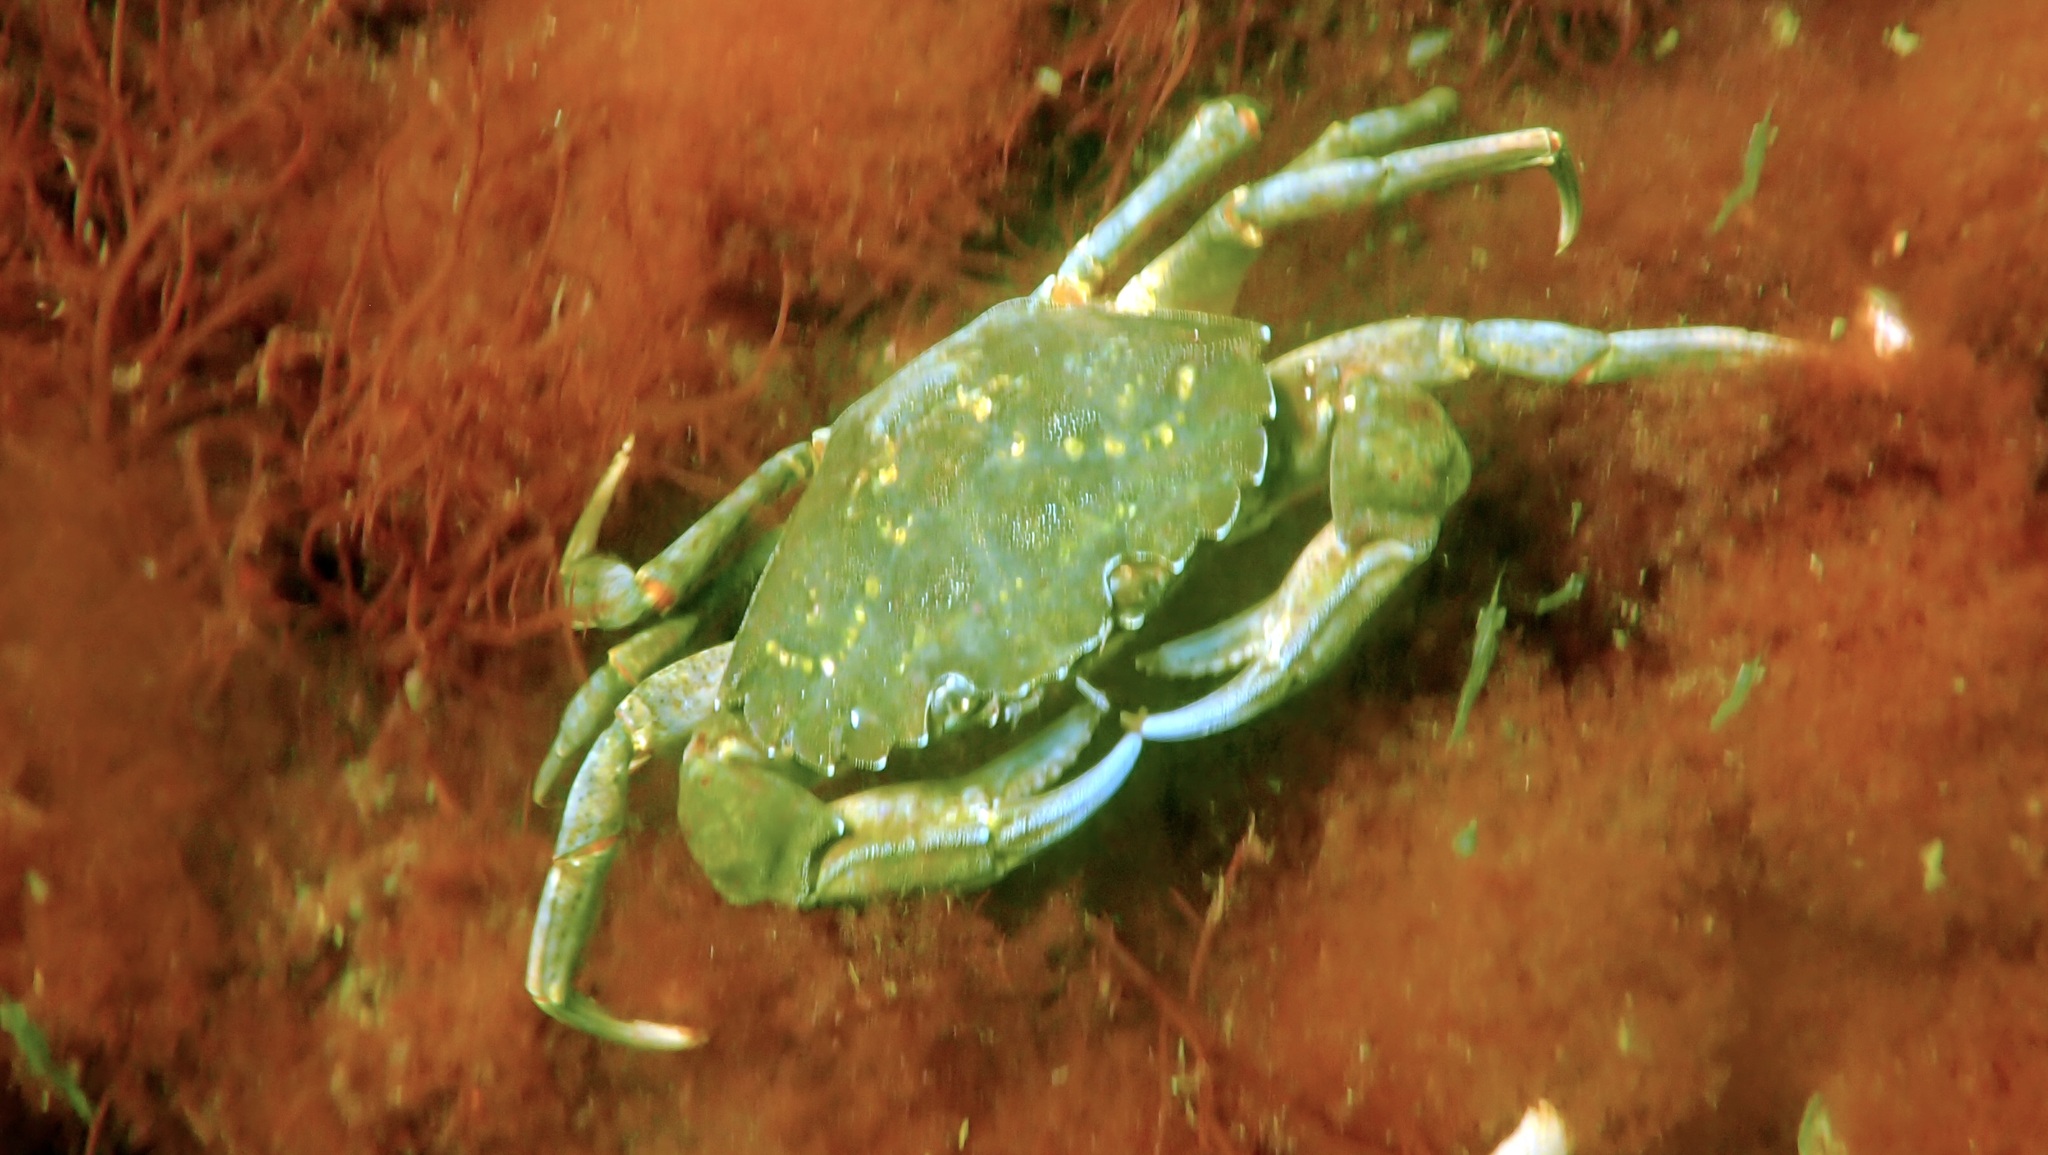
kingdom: Animalia
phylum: Arthropoda
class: Malacostraca
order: Decapoda
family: Carcinidae
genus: Carcinus
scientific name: Carcinus maenas
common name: European green crab
